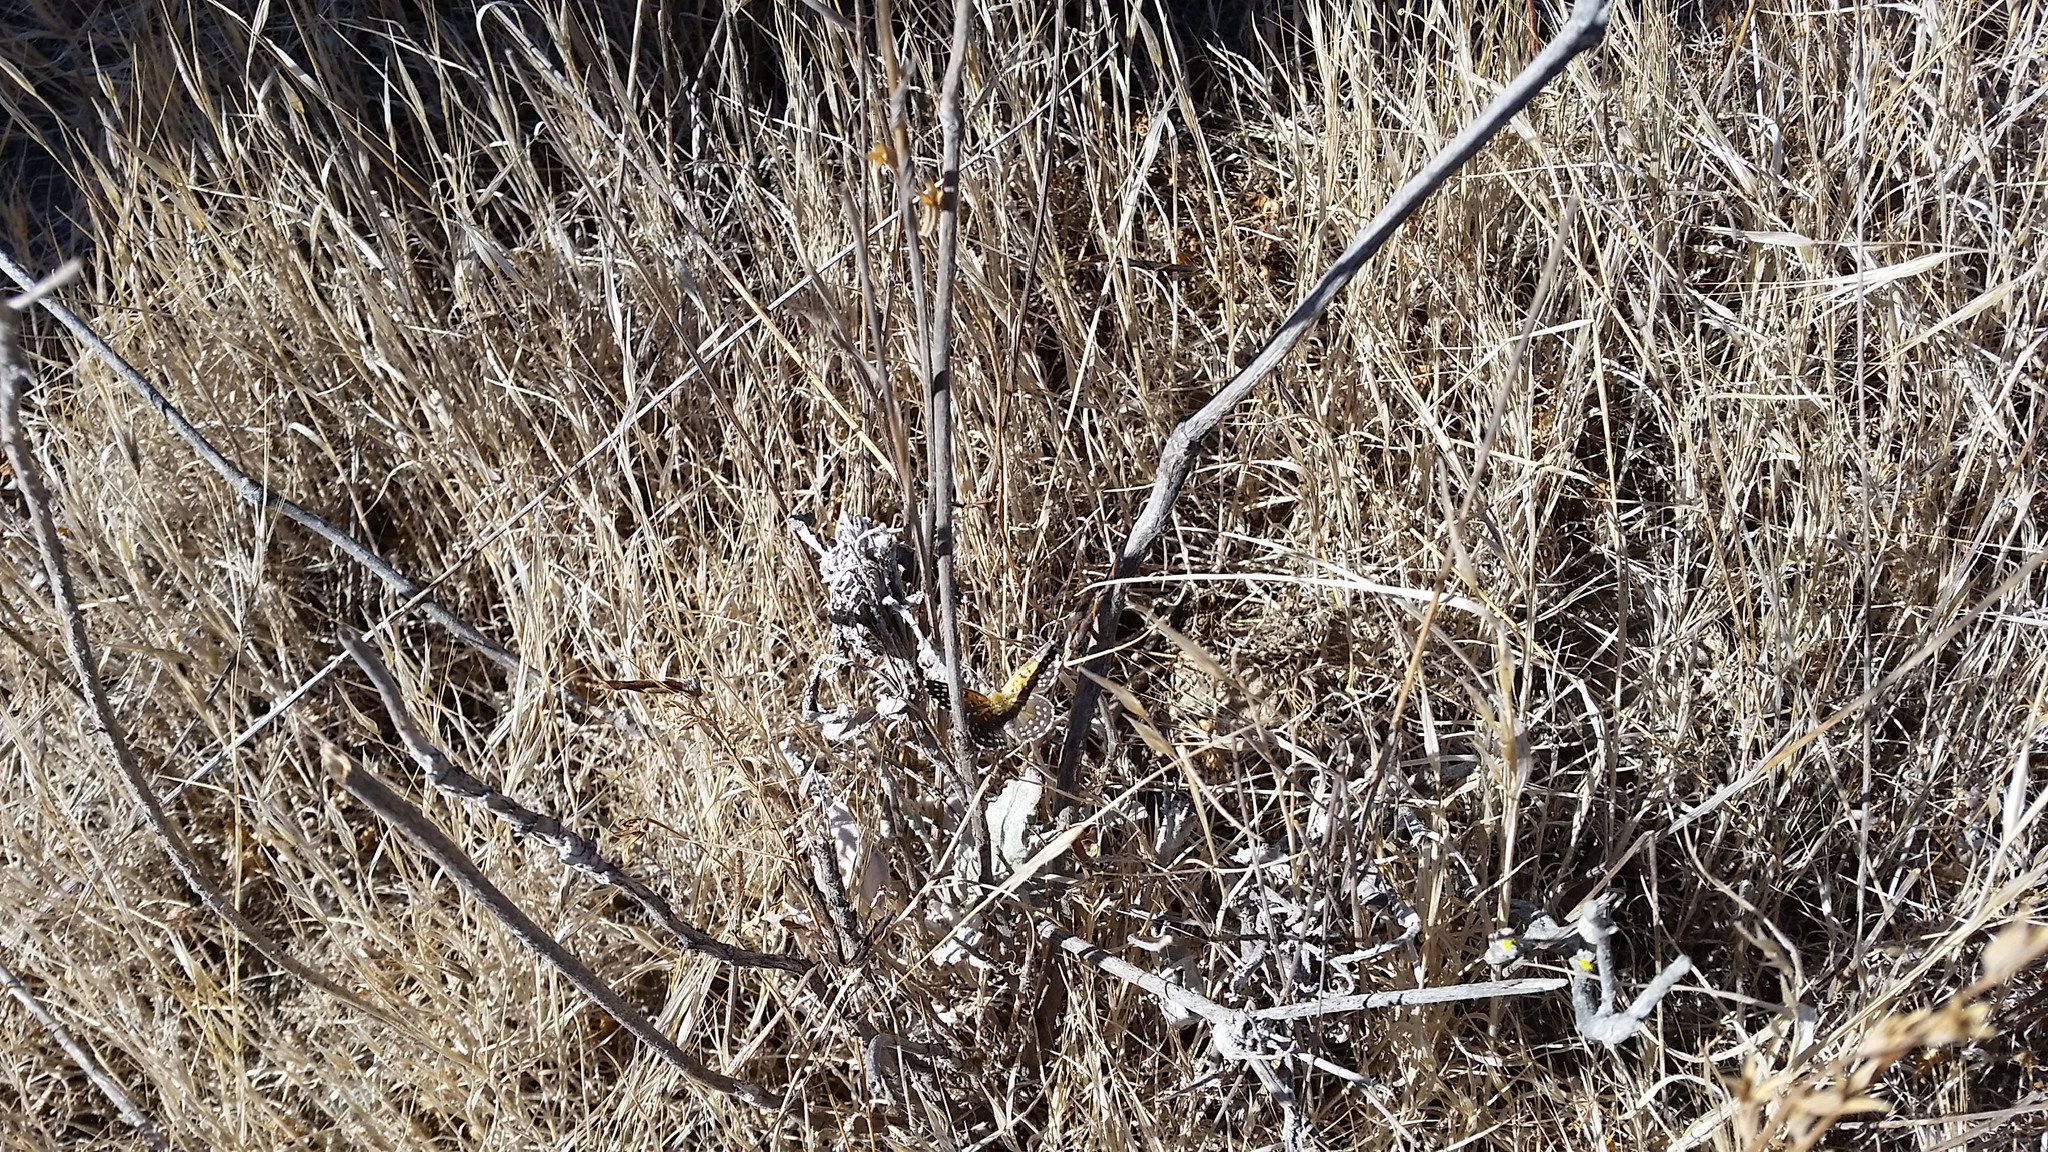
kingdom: Animalia
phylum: Arthropoda
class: Insecta
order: Lepidoptera
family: Riodinidae
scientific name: Riodinidae
